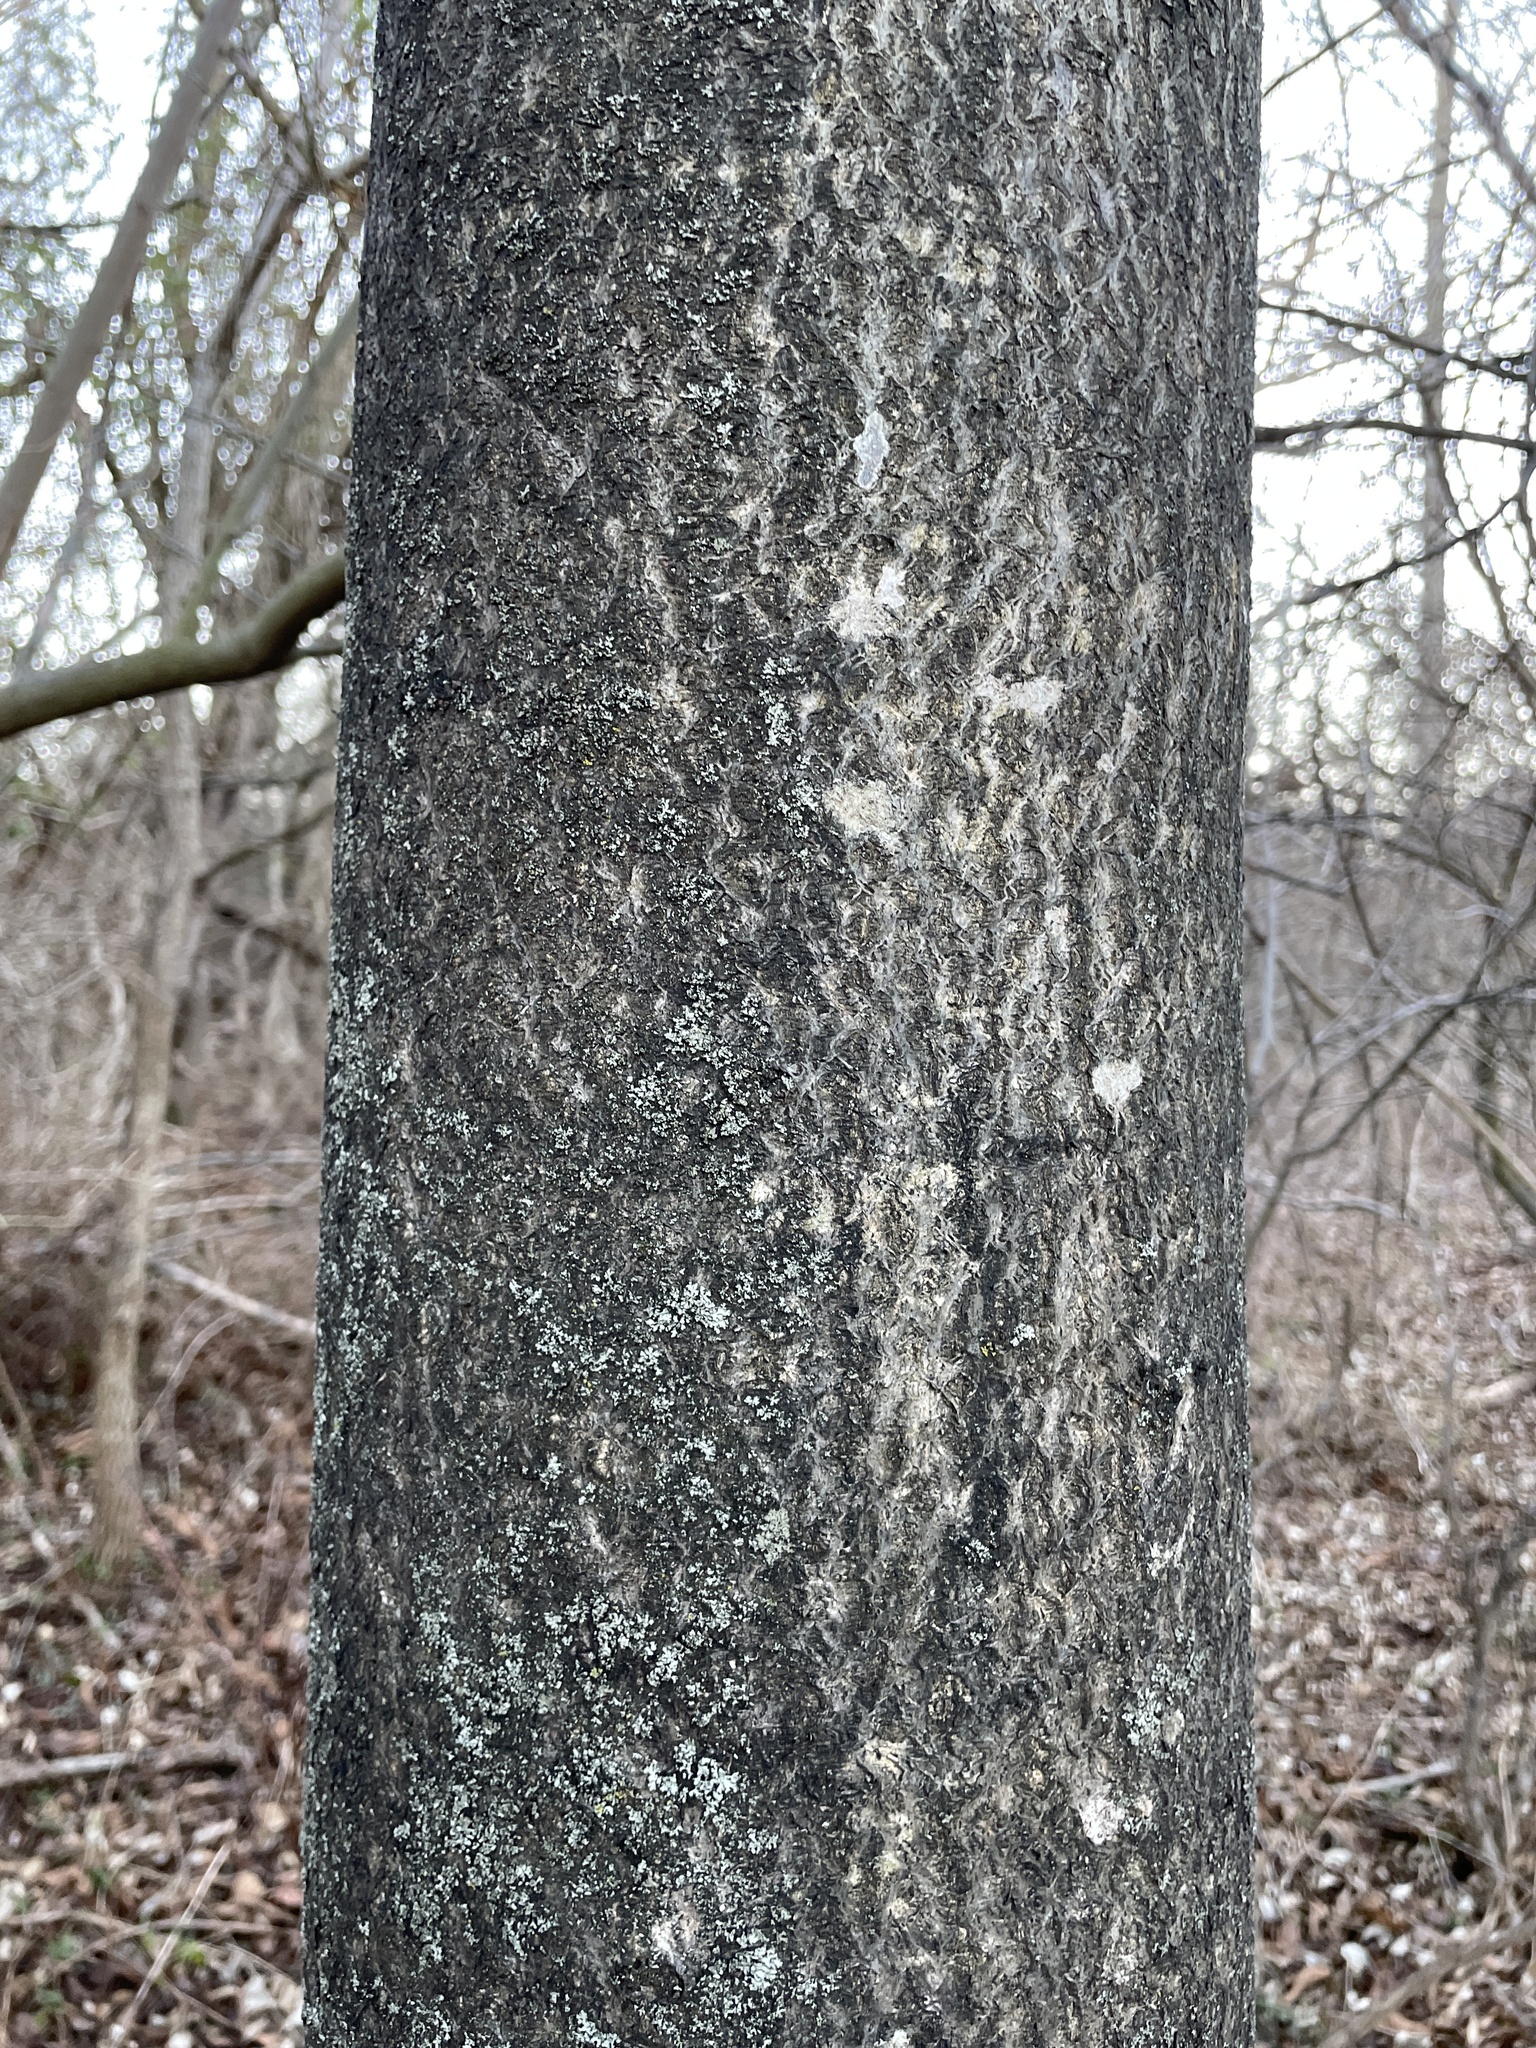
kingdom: Plantae
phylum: Tracheophyta
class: Magnoliopsida
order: Sapindales
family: Simaroubaceae
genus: Ailanthus
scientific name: Ailanthus altissima
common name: Tree-of-heaven
